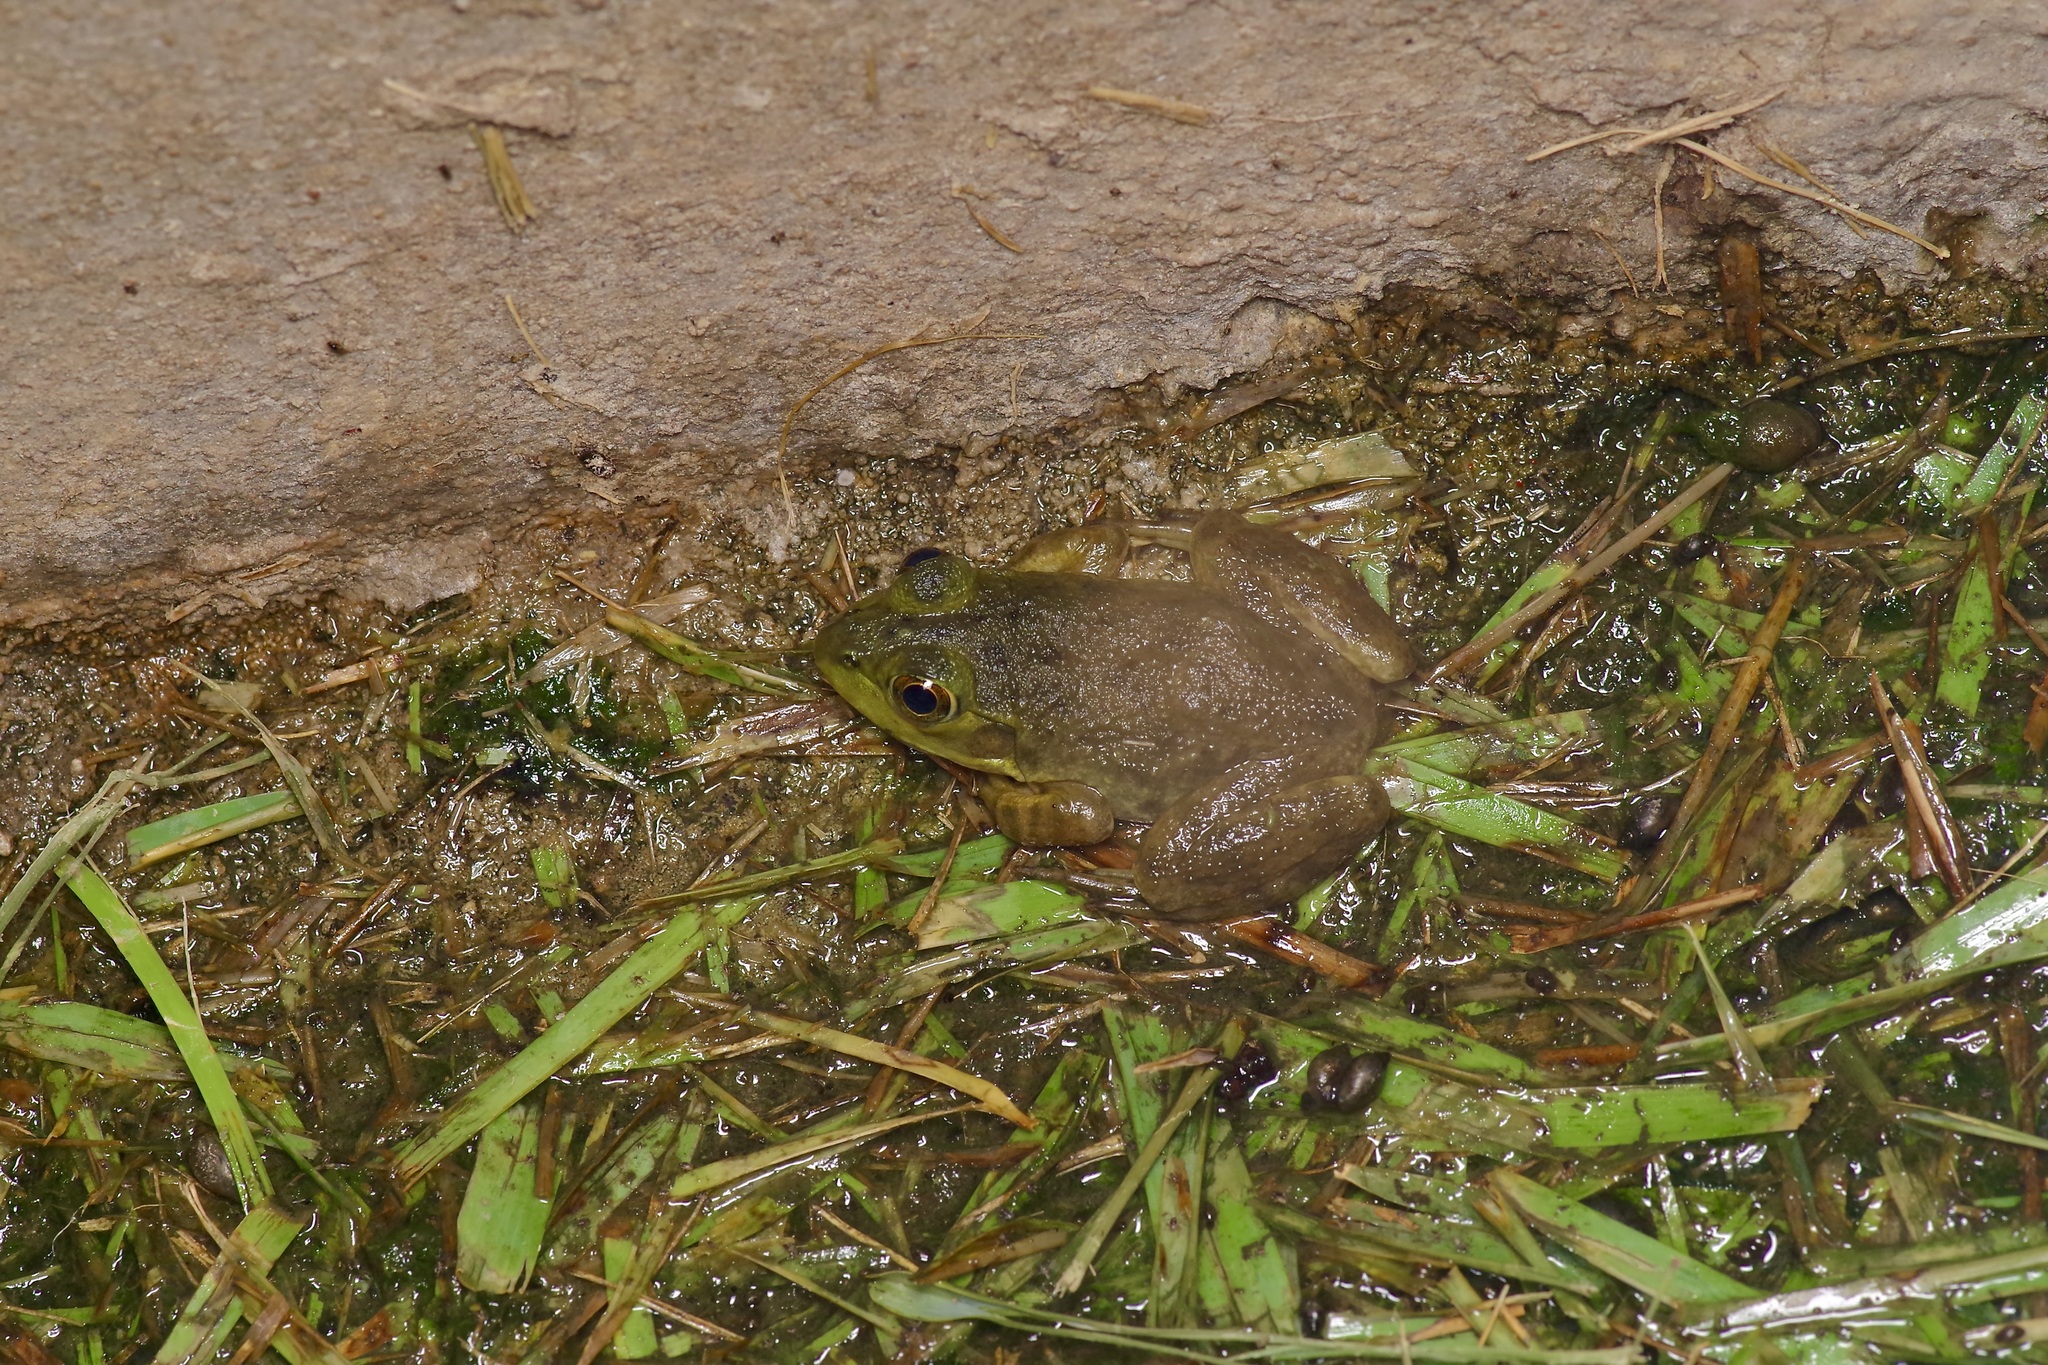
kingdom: Animalia
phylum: Chordata
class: Amphibia
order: Anura
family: Ranidae
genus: Lithobates
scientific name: Lithobates catesbeianus
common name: American bullfrog
